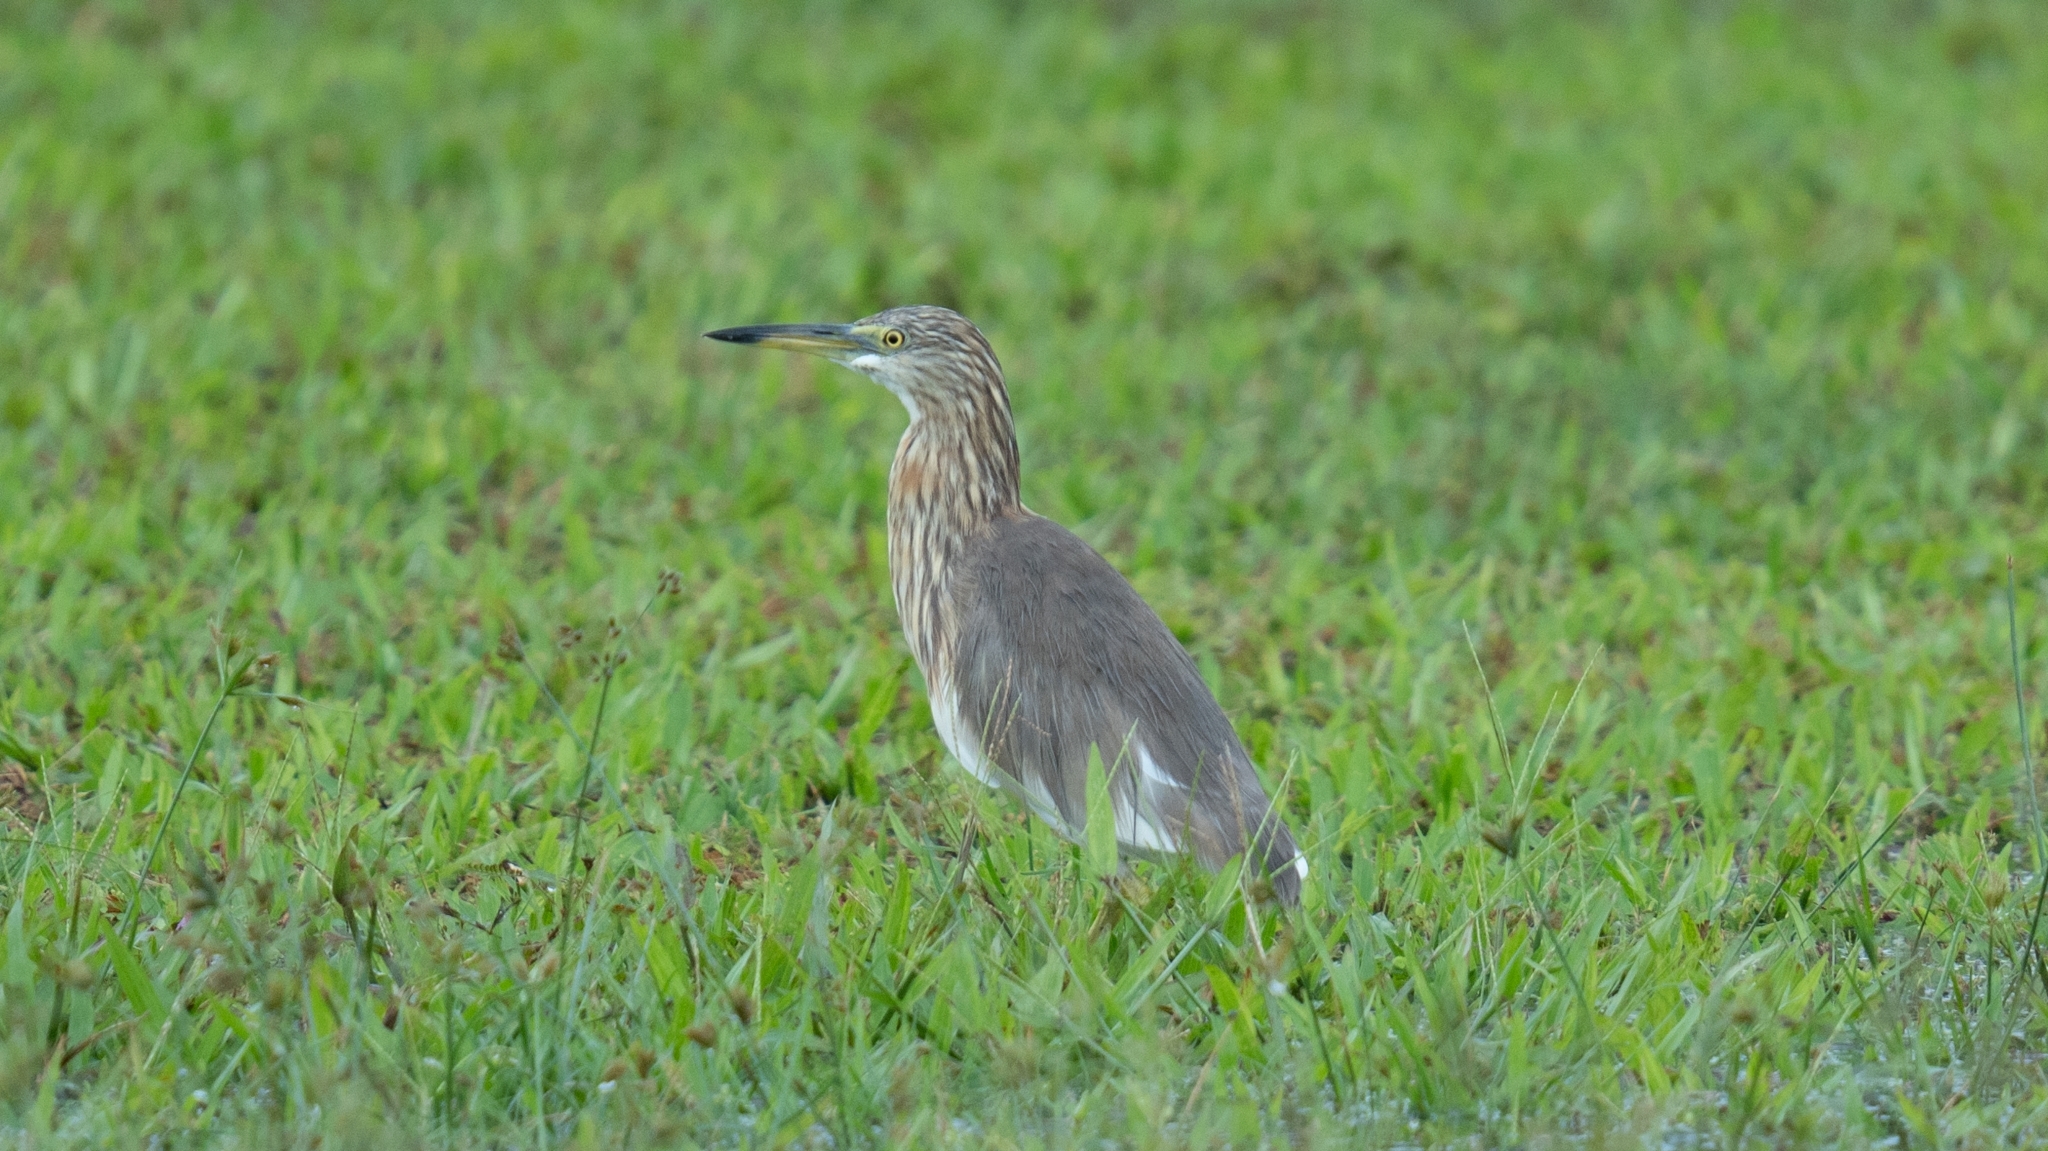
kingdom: Animalia
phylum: Chordata
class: Aves
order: Pelecaniformes
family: Ardeidae
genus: Ardeola
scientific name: Ardeola
